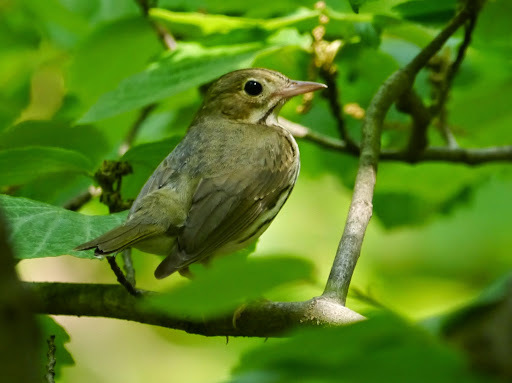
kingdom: Animalia
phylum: Chordata
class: Aves
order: Passeriformes
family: Parulidae
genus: Seiurus
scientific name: Seiurus aurocapilla
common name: Ovenbird
